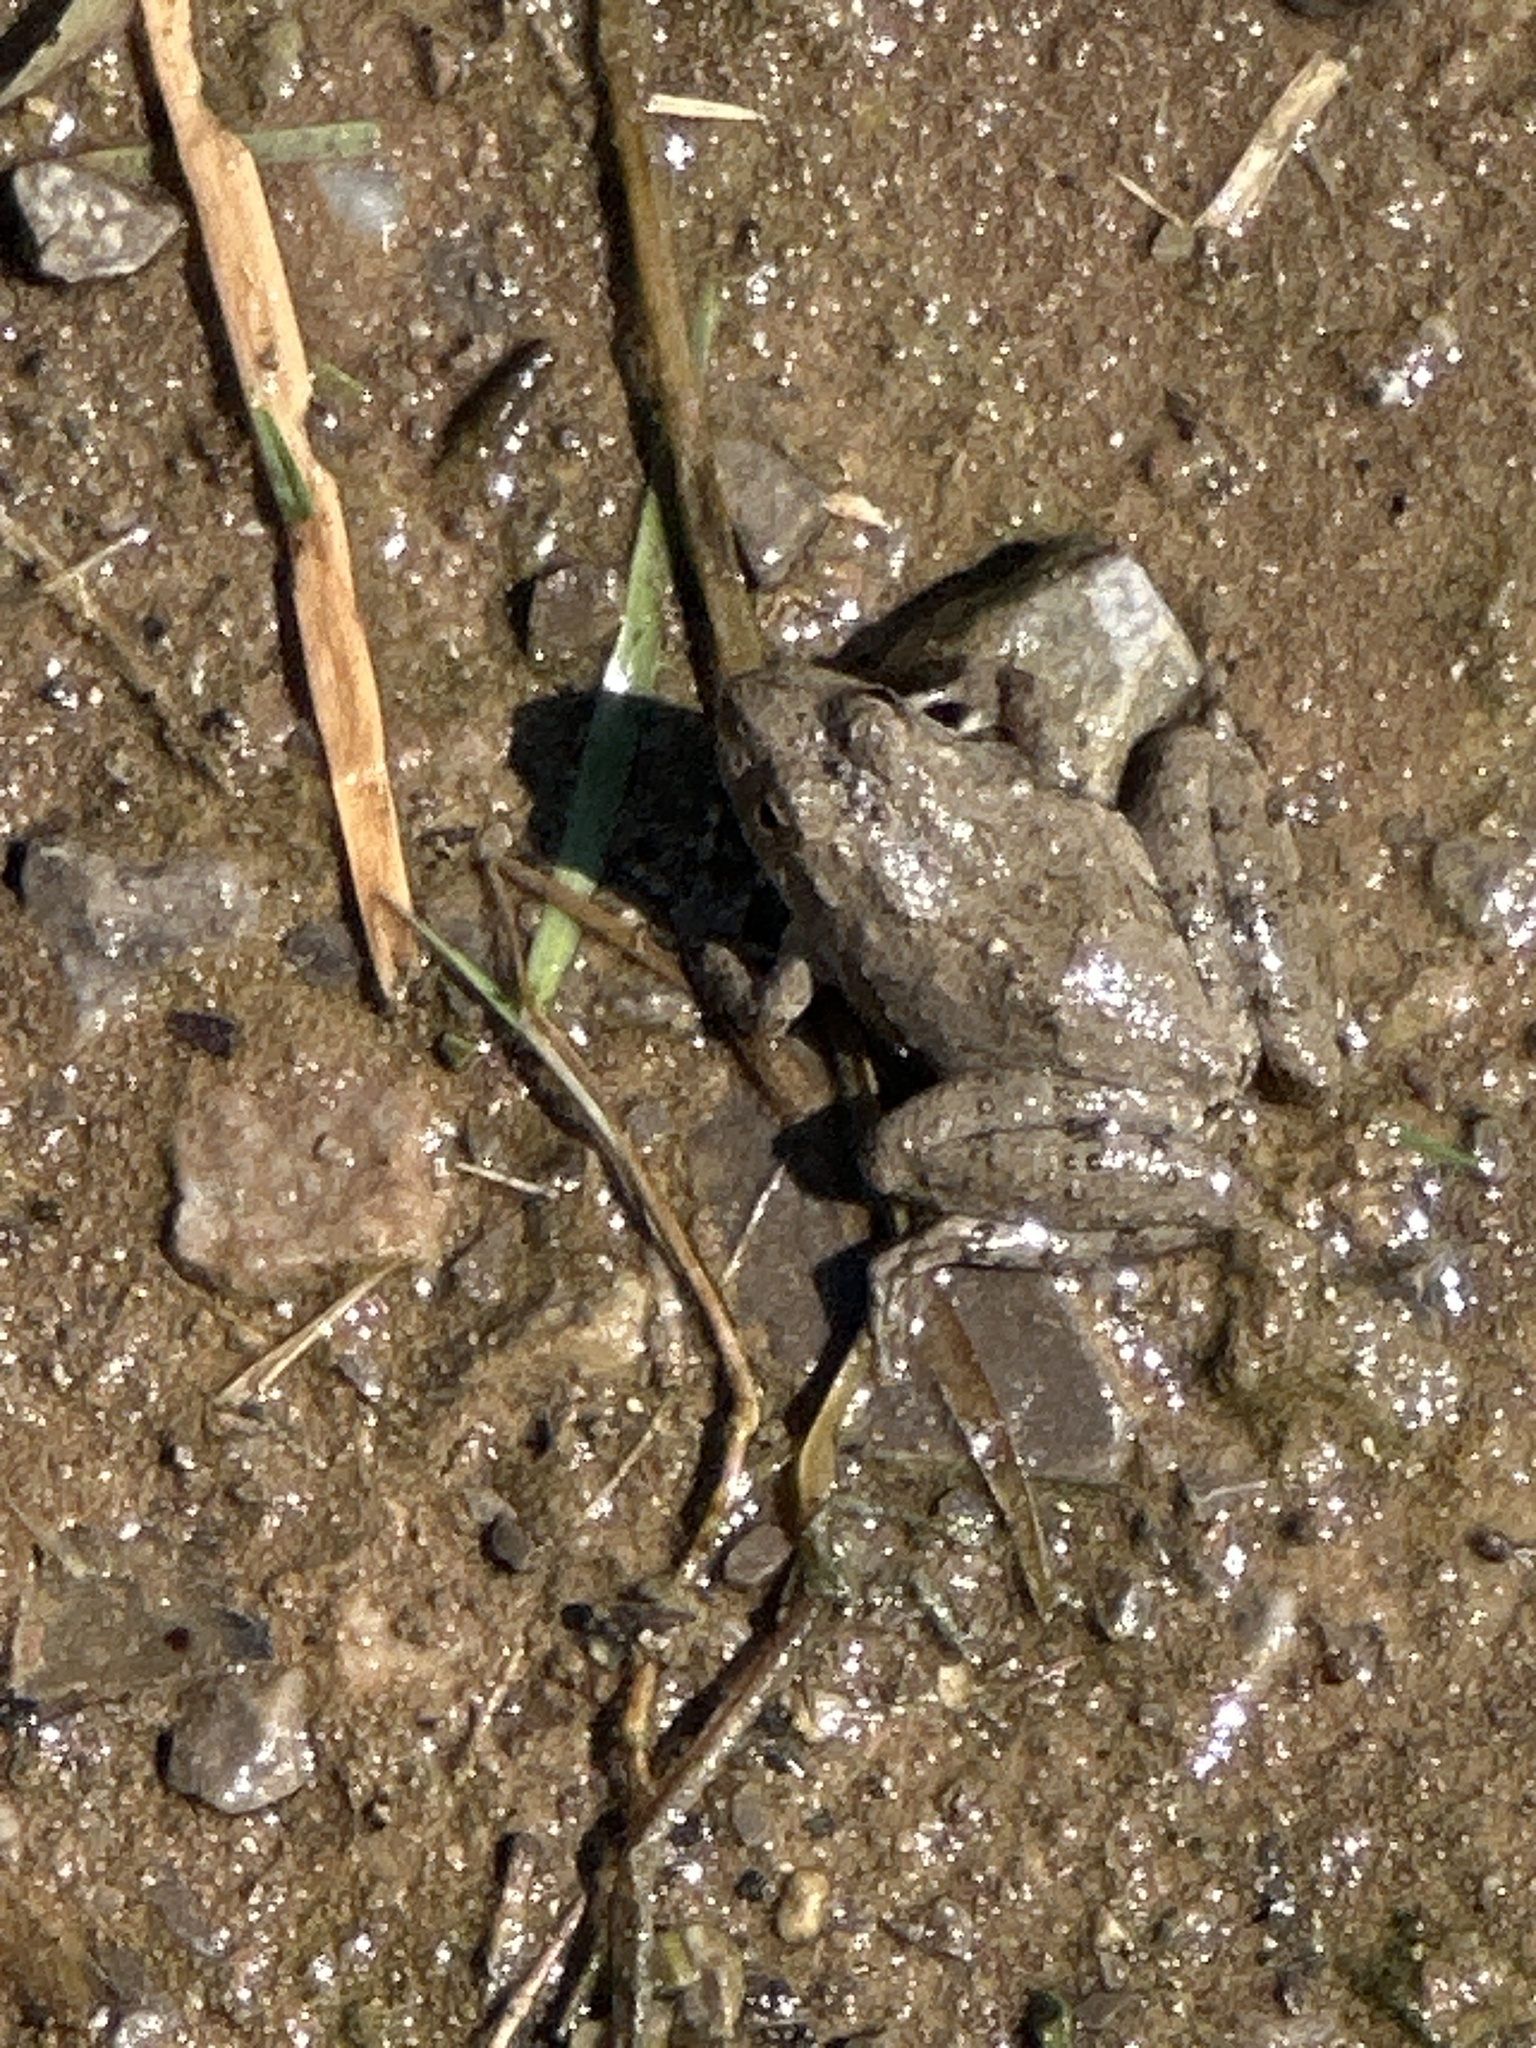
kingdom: Animalia
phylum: Chordata
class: Amphibia
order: Anura
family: Hylidae
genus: Acris
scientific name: Acris blanchardi
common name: Blanchard's cricket frog
